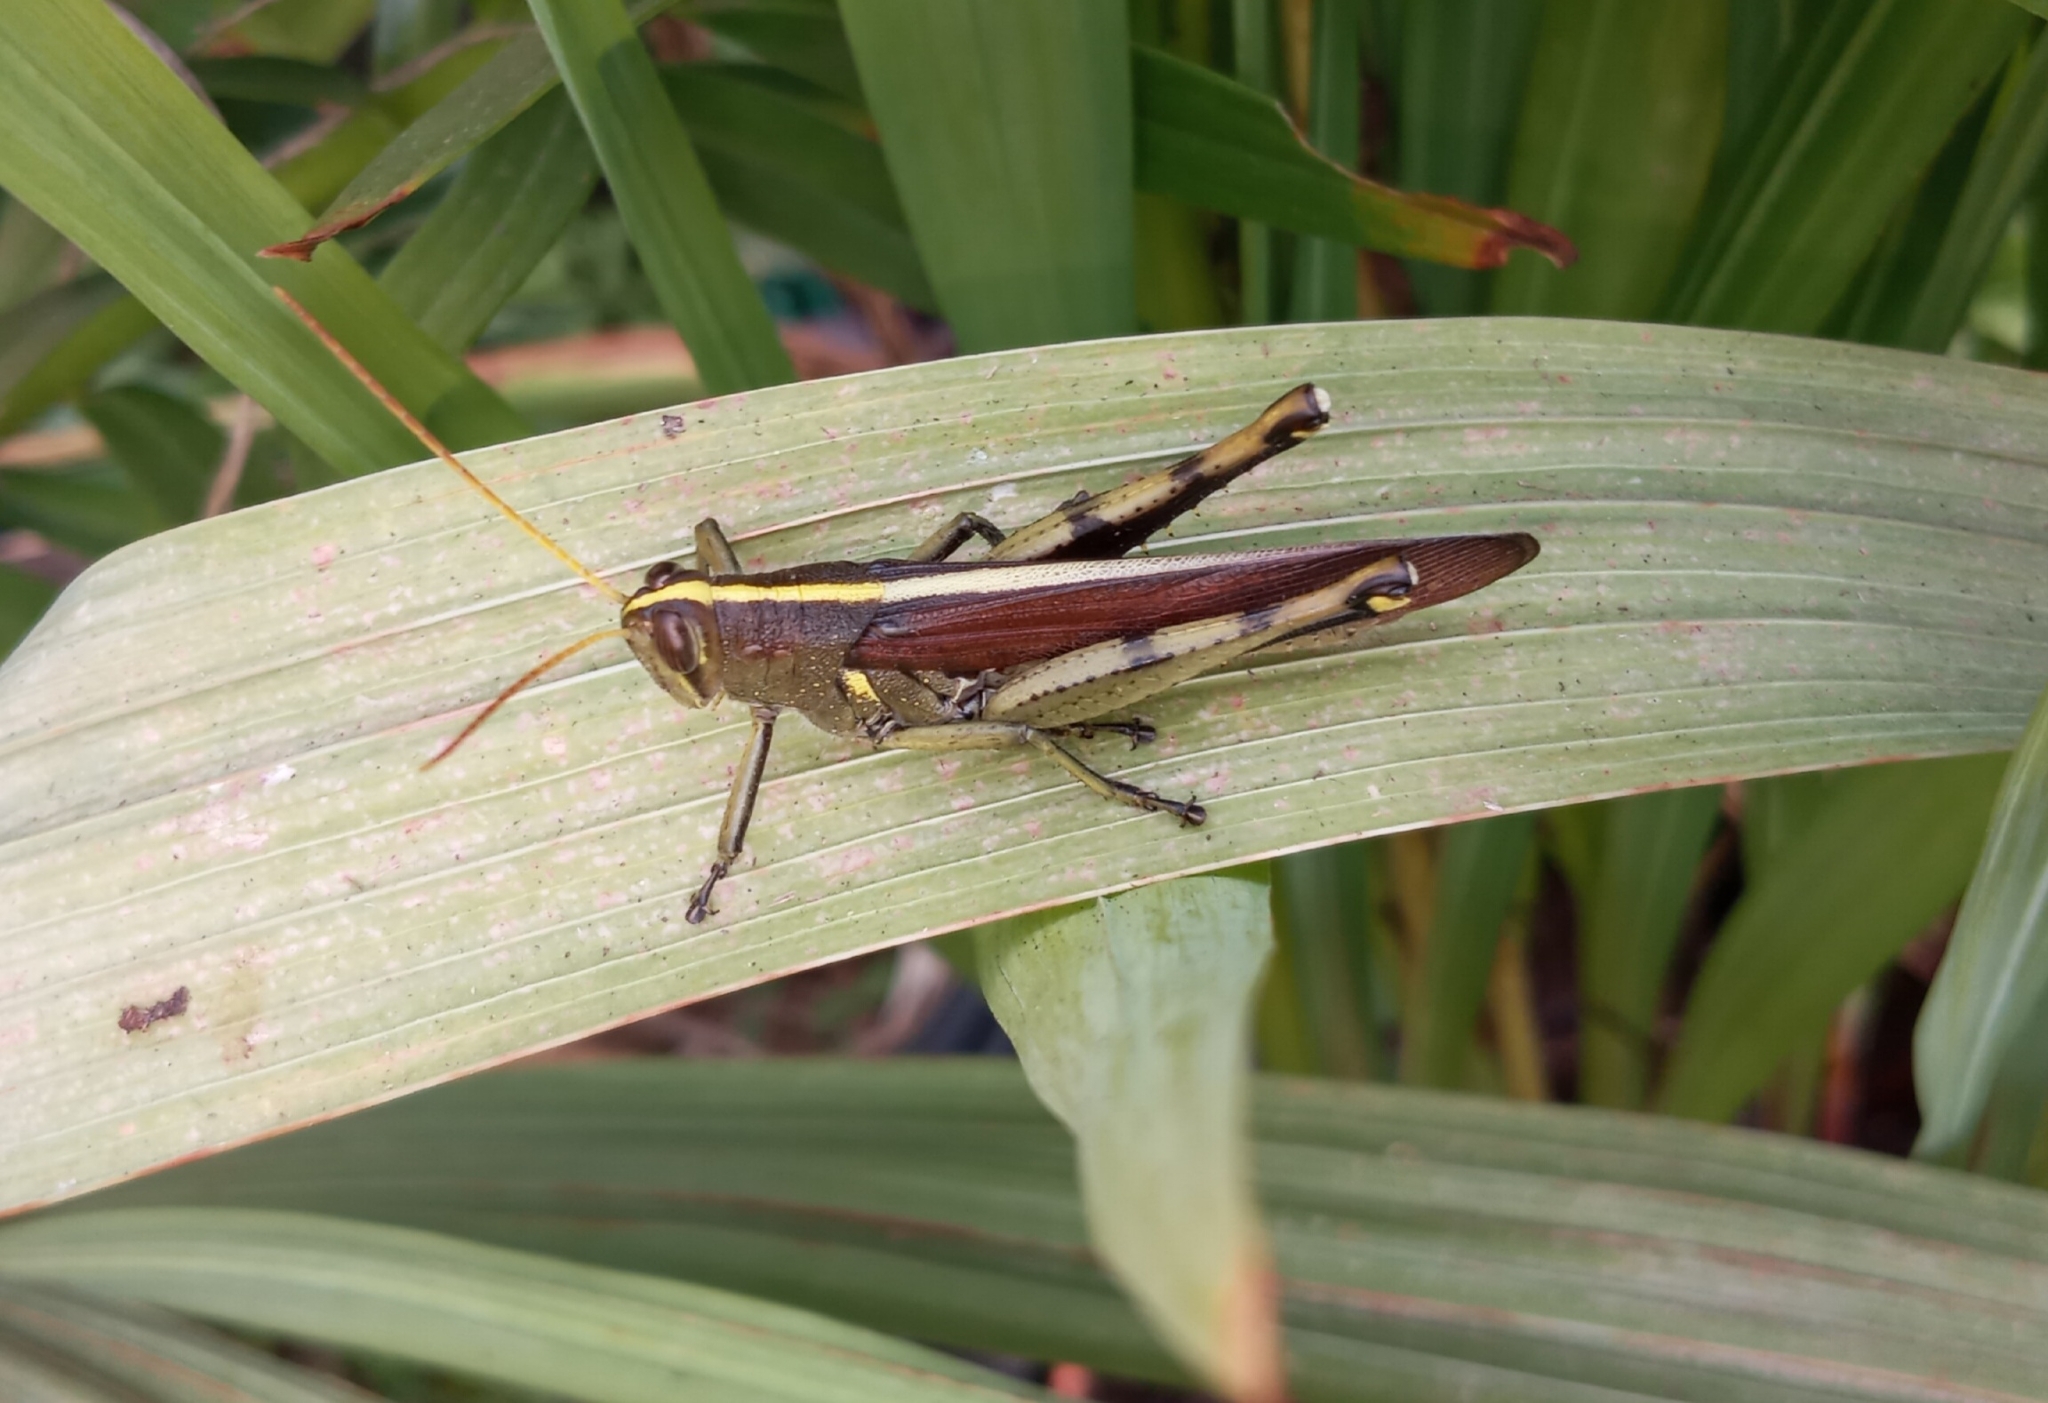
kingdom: Animalia
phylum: Arthropoda
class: Insecta
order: Orthoptera
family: Acrididae
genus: Schistocerca
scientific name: Schistocerca obscura
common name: Obscure bird grasshopper
